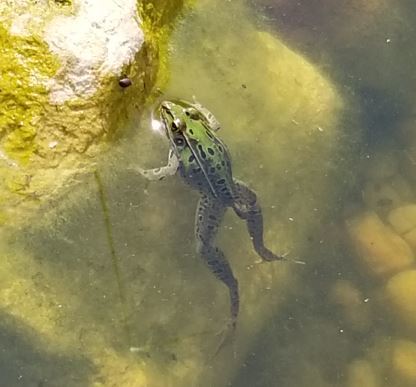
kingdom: Animalia
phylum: Chordata
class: Amphibia
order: Anura
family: Ranidae
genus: Lithobates
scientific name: Lithobates sphenocephalus
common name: Southern leopard frog
